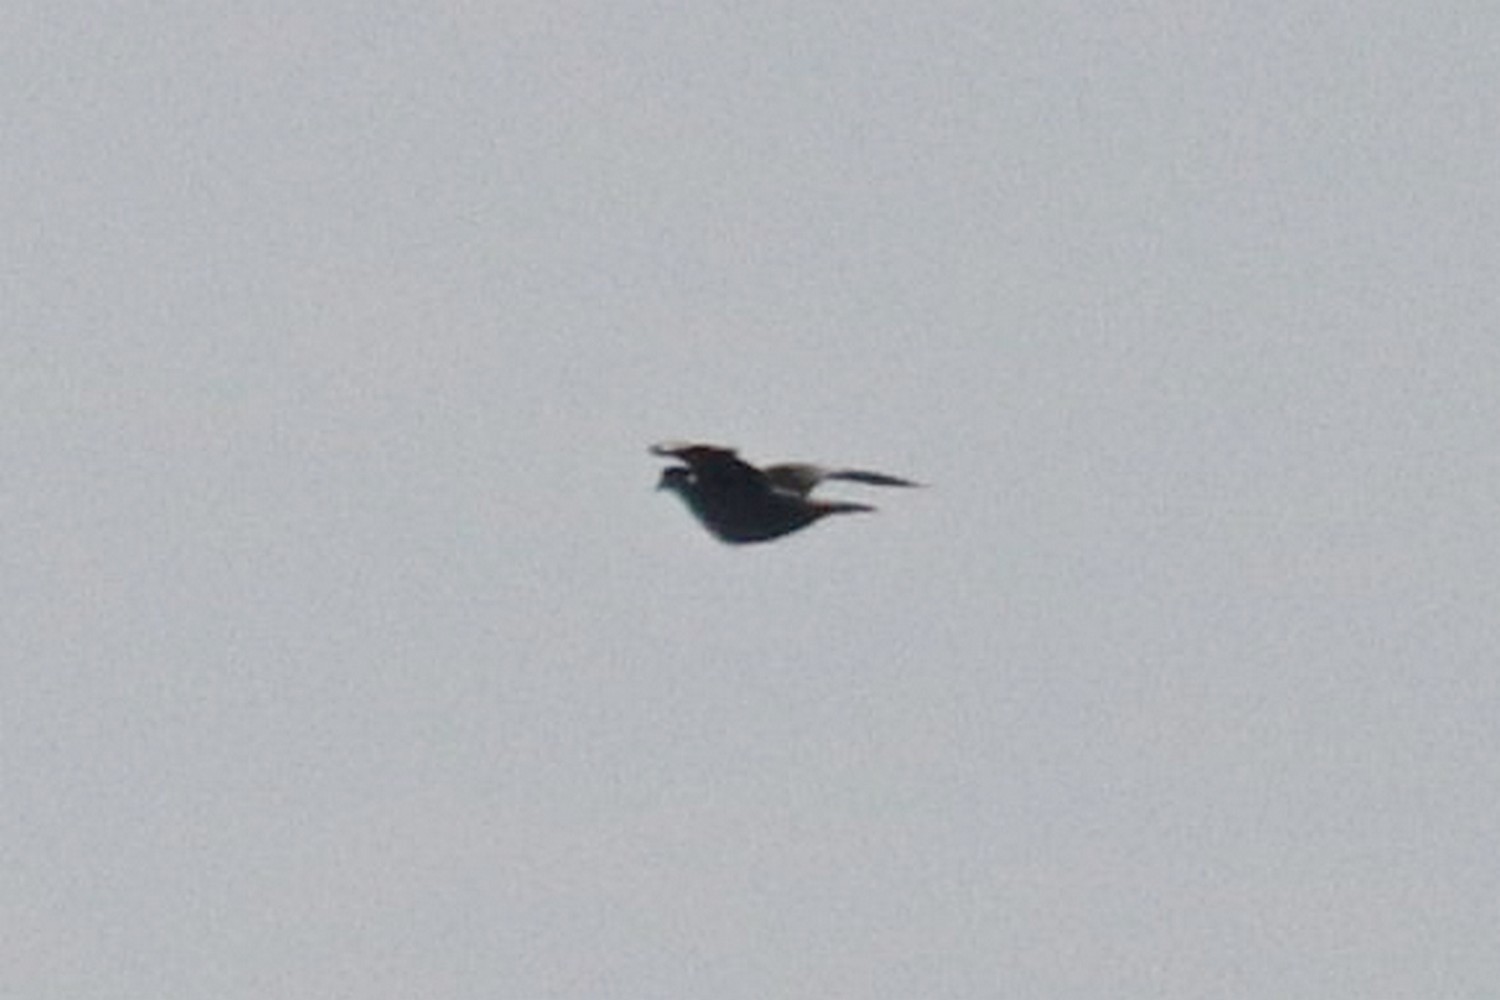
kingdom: Animalia
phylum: Chordata
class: Aves
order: Columbiformes
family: Columbidae
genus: Columba
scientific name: Columba palumbus
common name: Common wood pigeon
